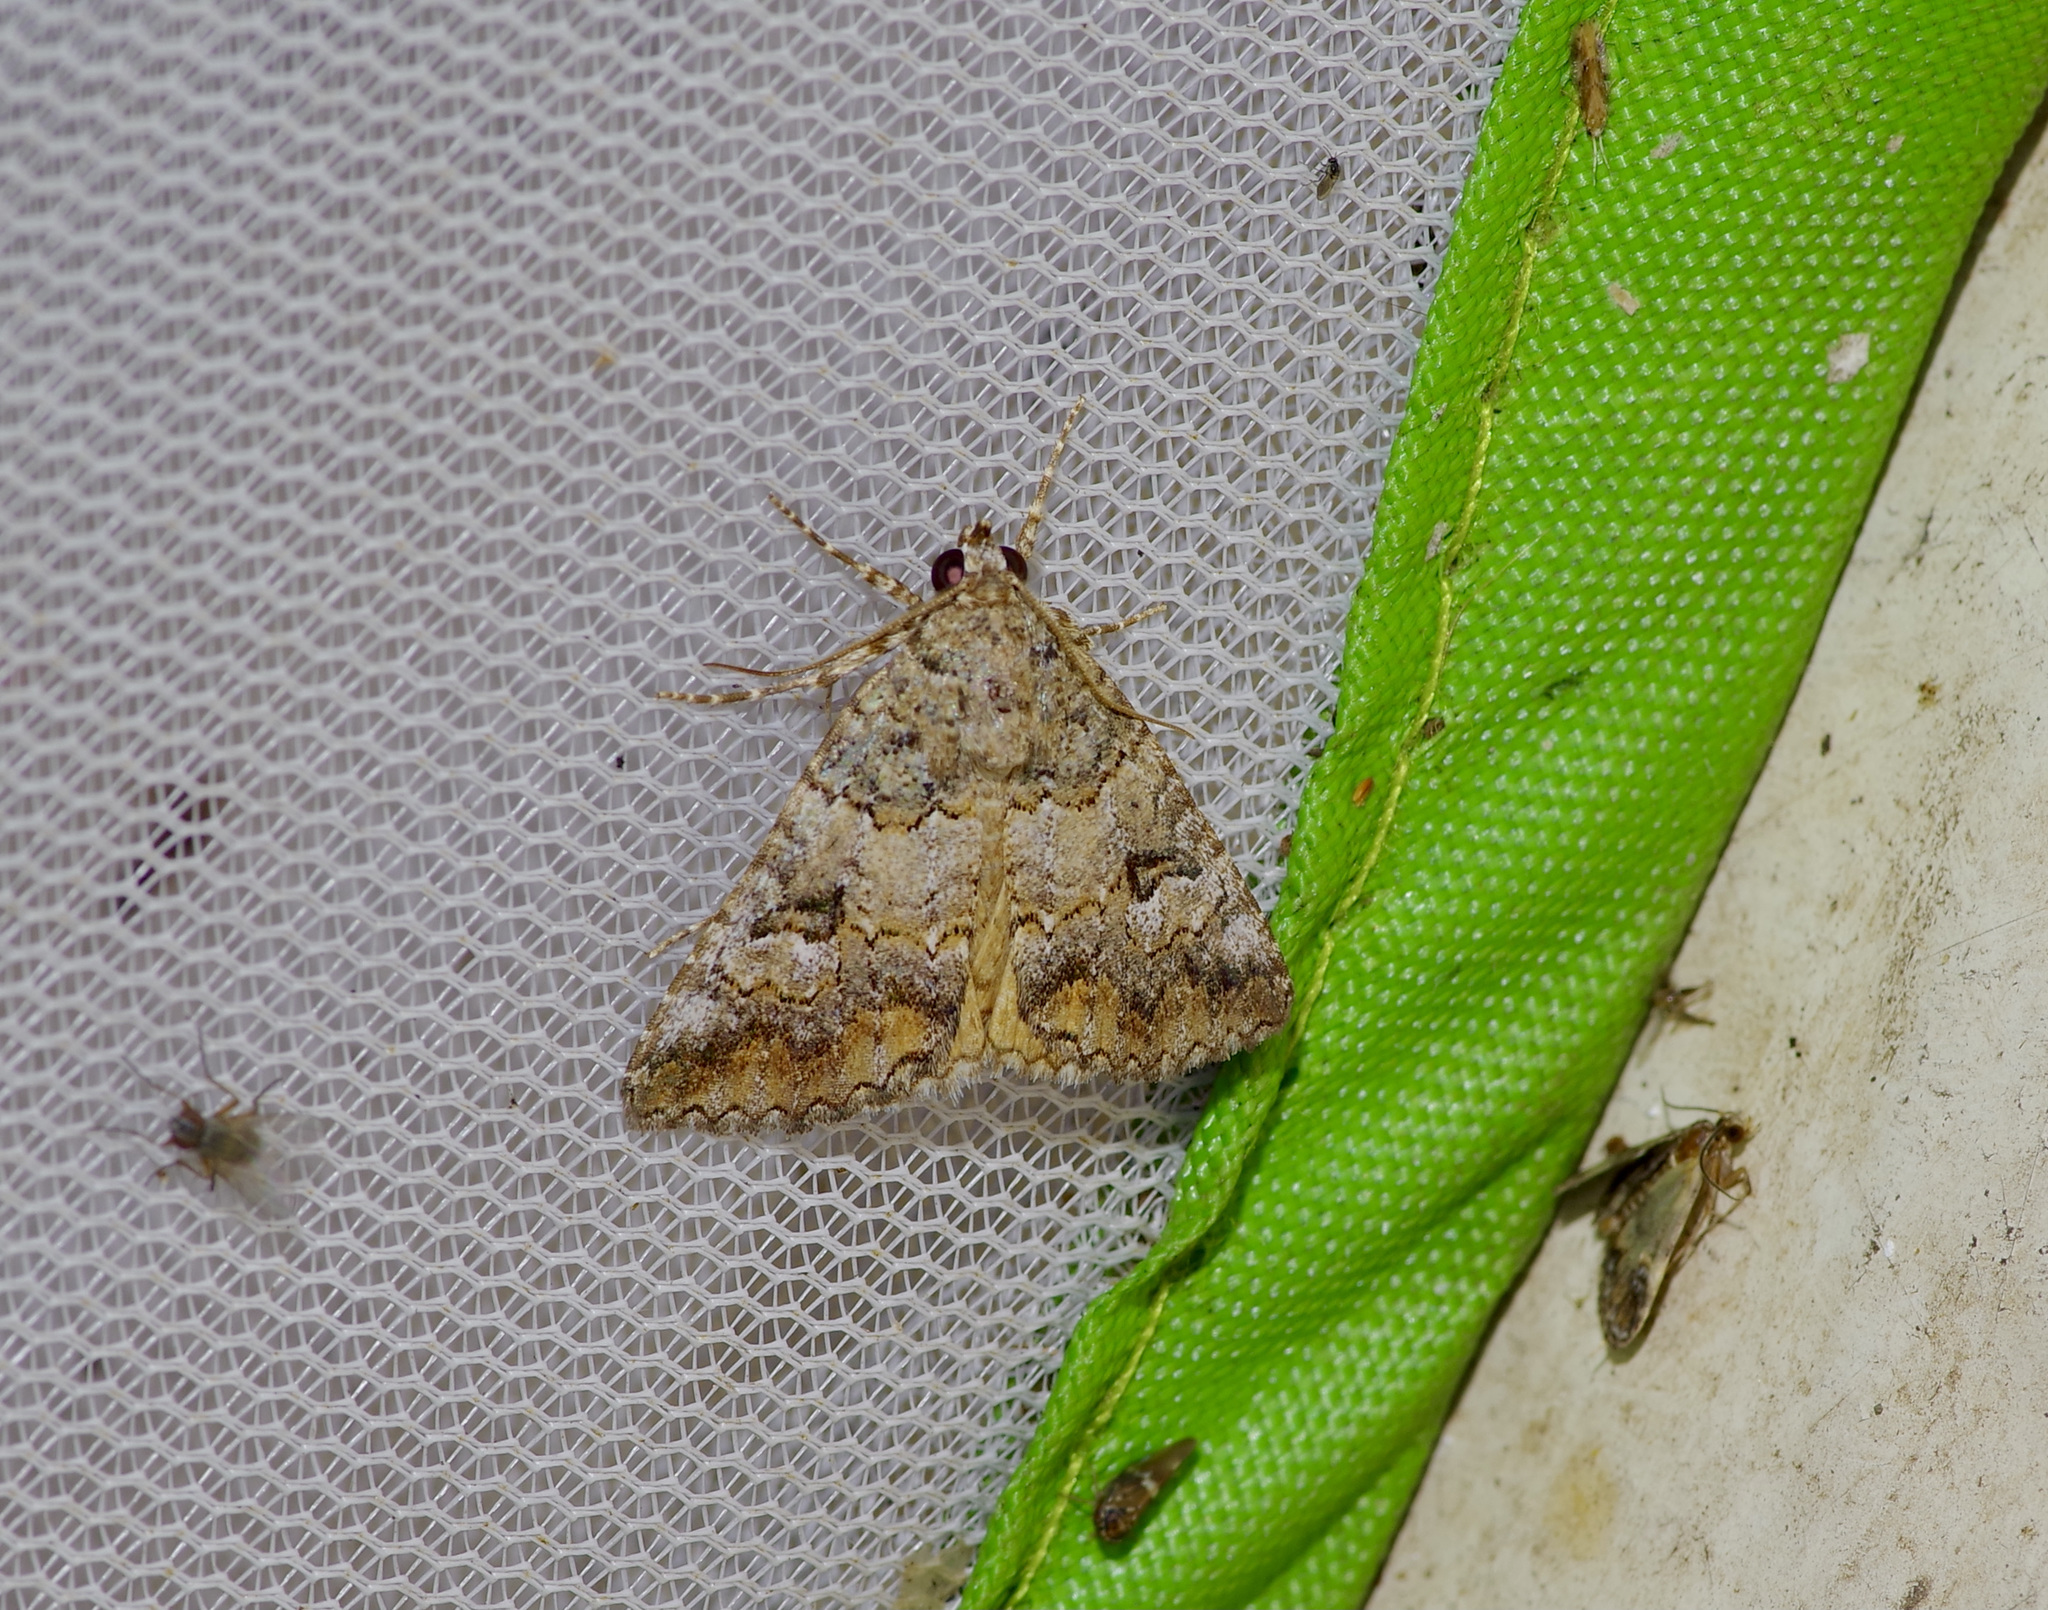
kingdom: Animalia
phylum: Arthropoda
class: Insecta
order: Lepidoptera
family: Erebidae
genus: Eubolina
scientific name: Eubolina impartialis
